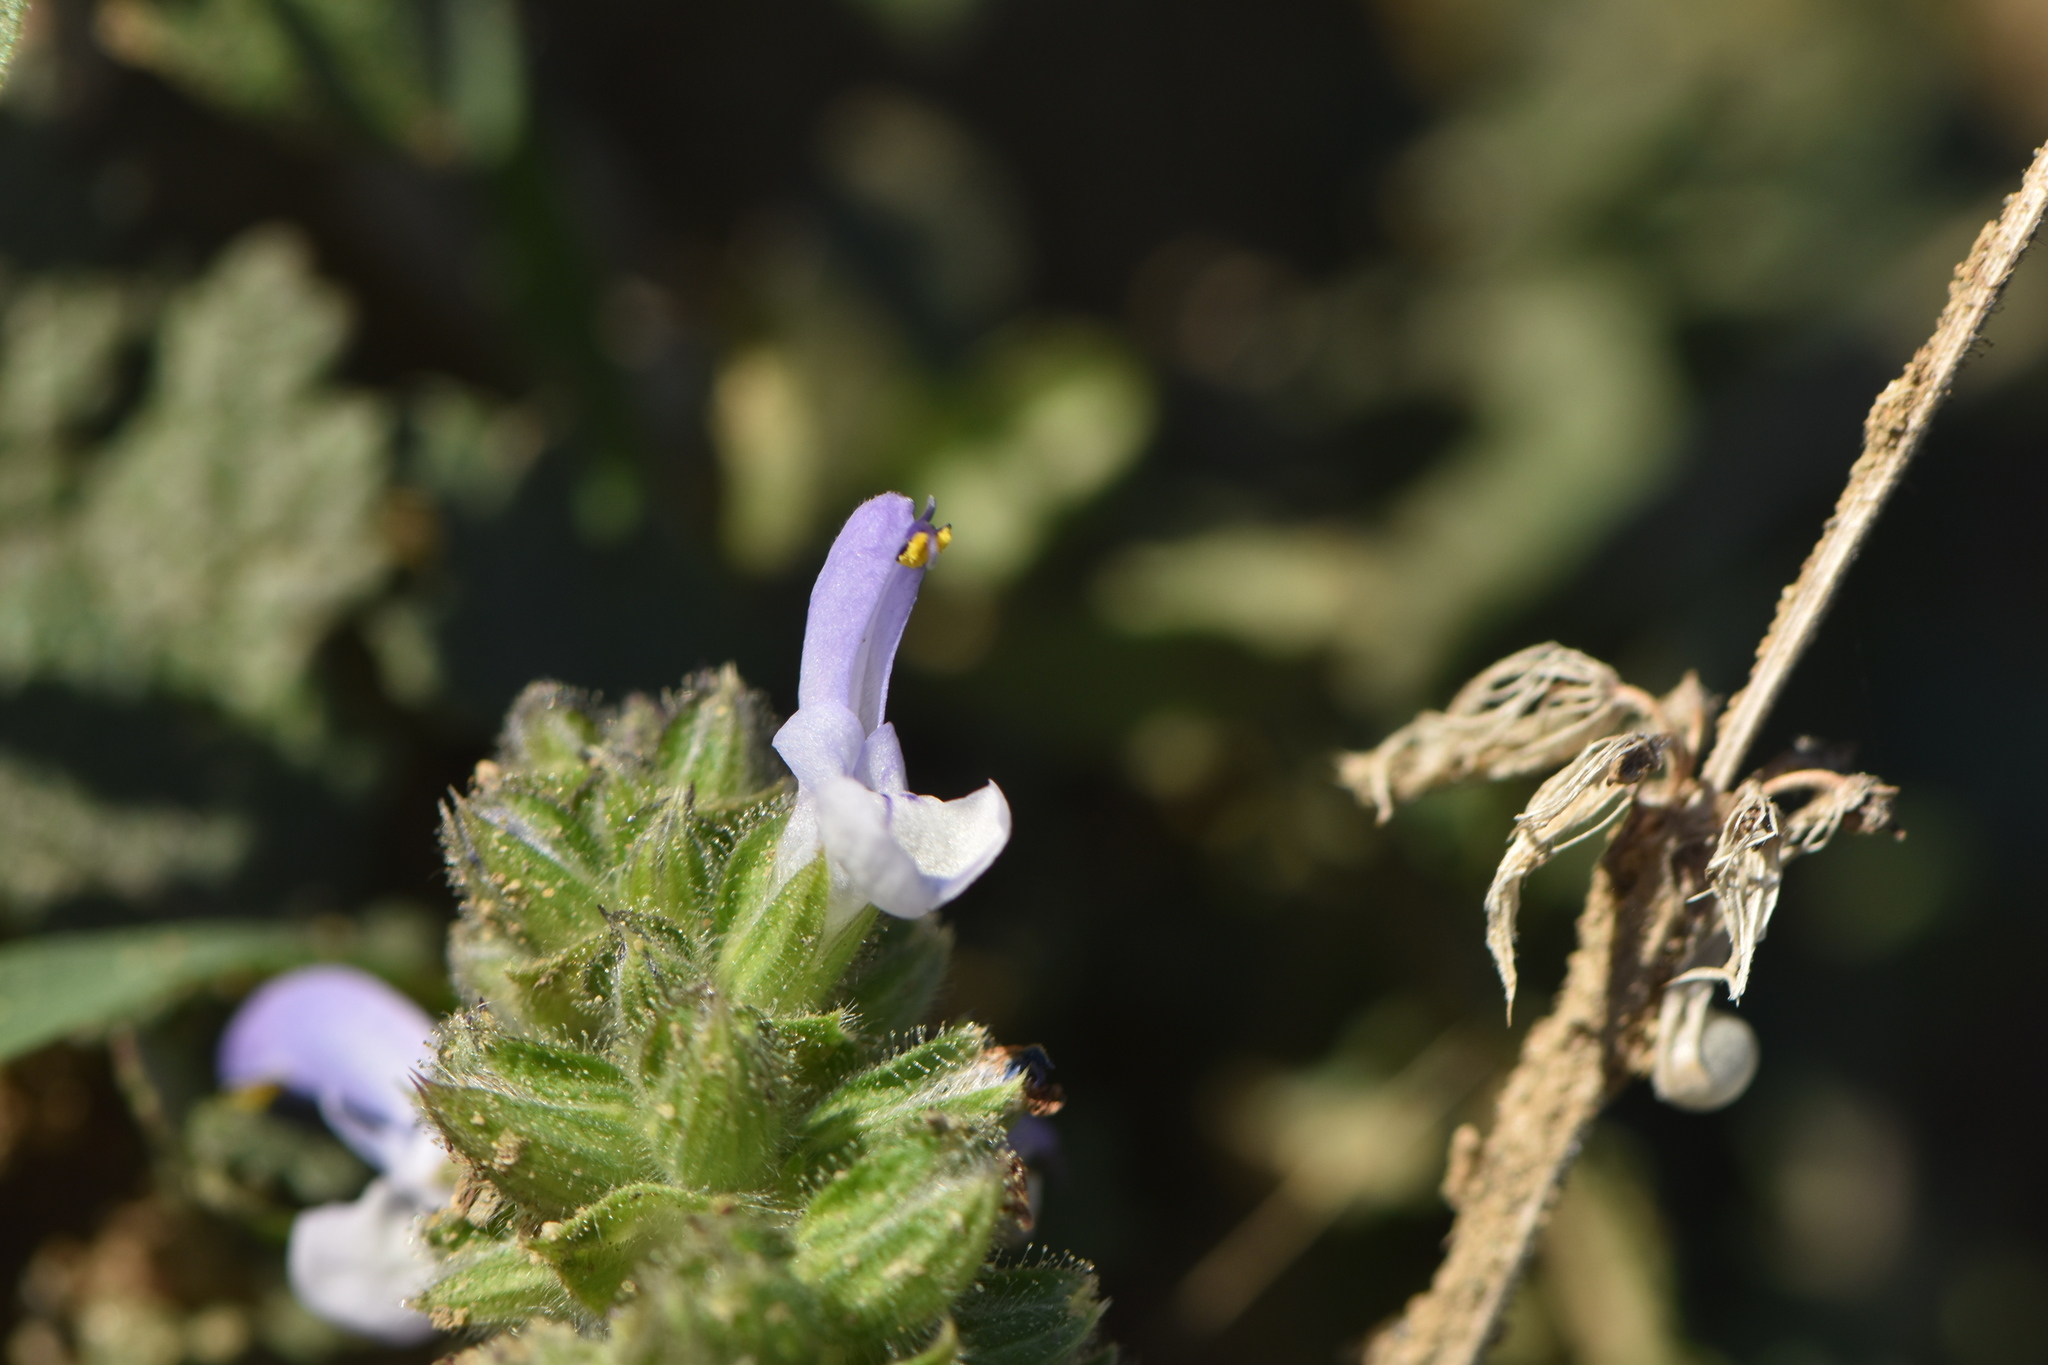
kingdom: Plantae
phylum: Tracheophyta
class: Magnoliopsida
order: Lamiales
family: Lamiaceae
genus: Salvia
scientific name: Salvia clandestina
